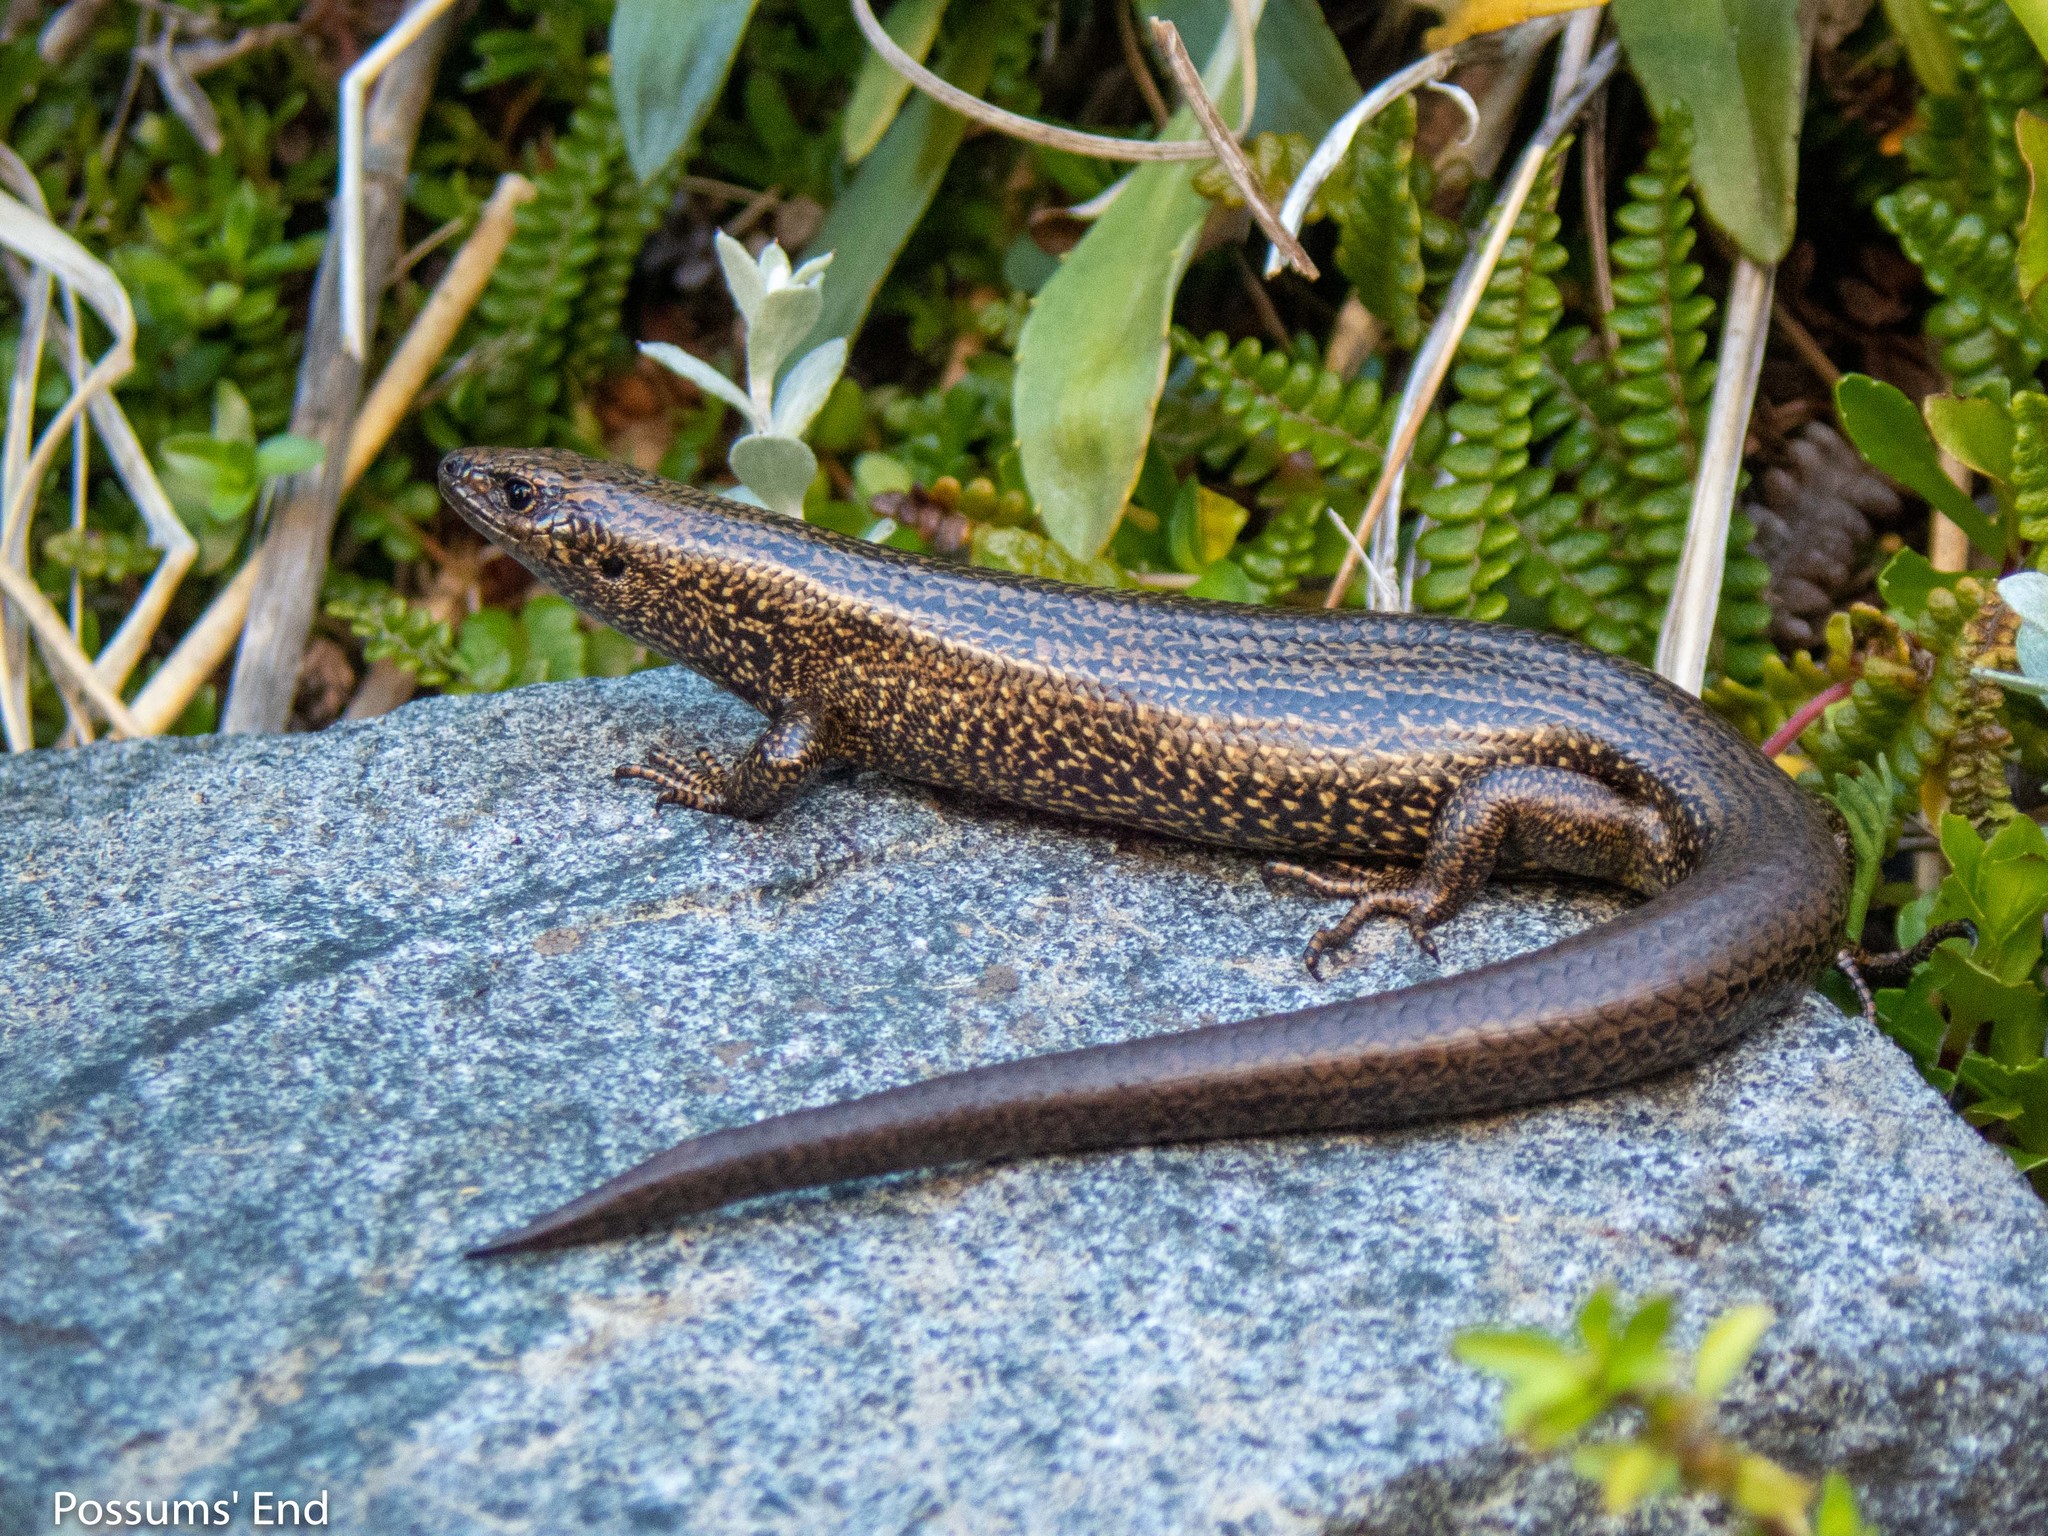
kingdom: Animalia
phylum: Chordata
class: Squamata
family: Scincidae
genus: Oligosoma
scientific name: Oligosoma awakopaka
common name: Awakopaka skink
